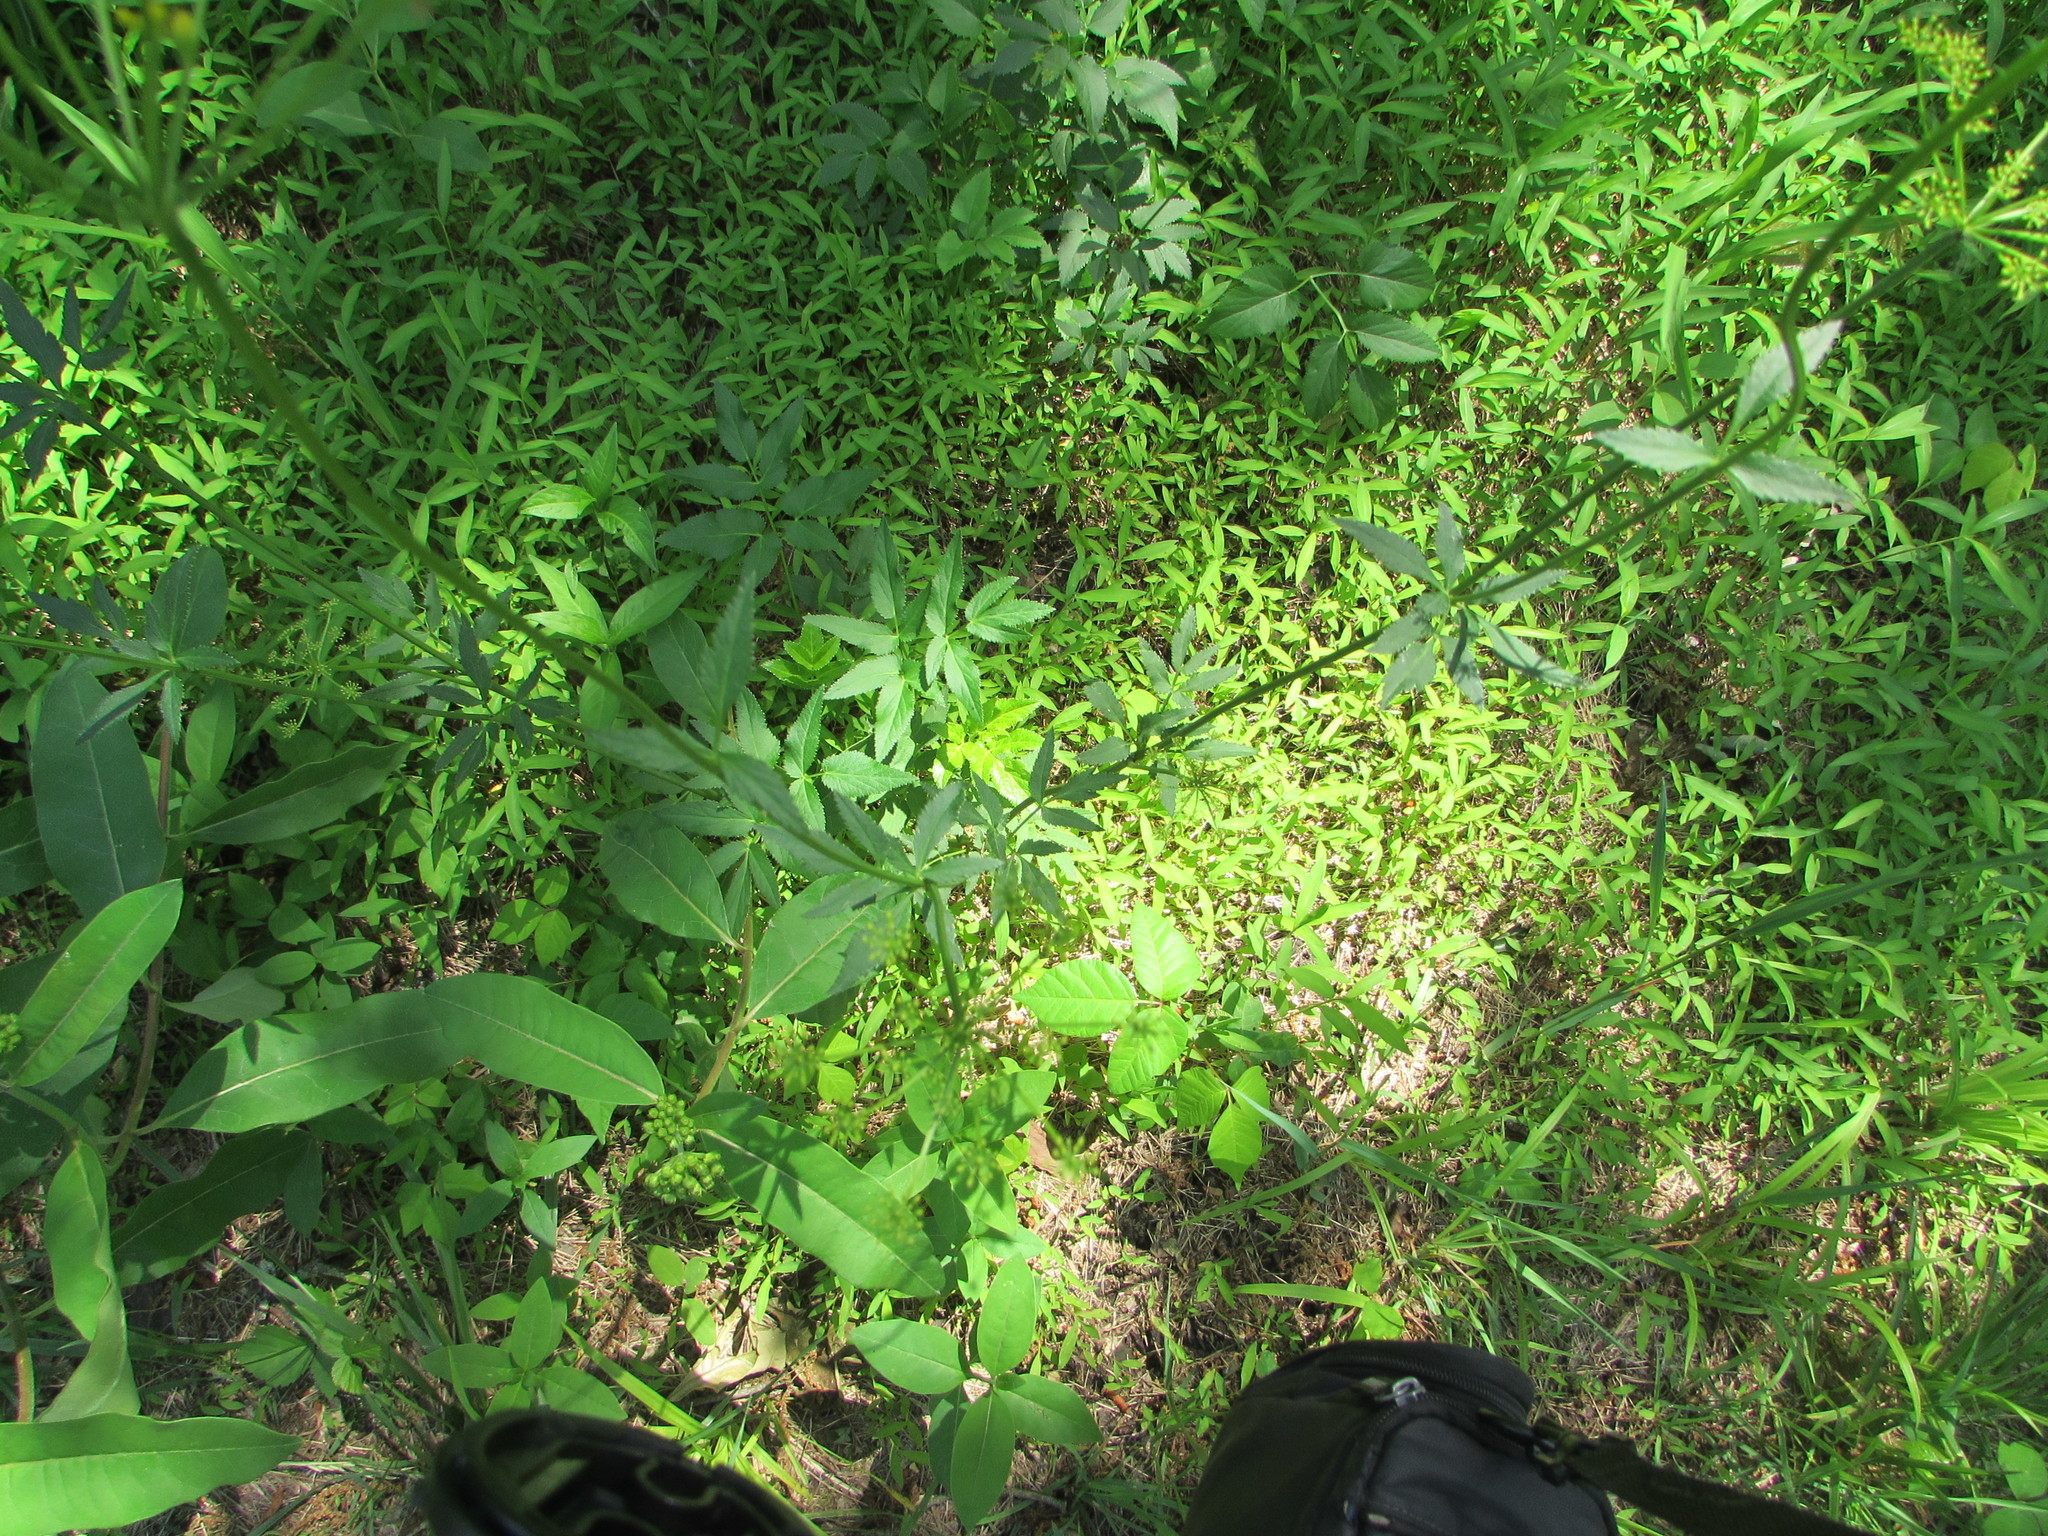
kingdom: Plantae
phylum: Tracheophyta
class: Magnoliopsida
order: Apiales
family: Apiaceae
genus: Zizia
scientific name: Zizia aurea
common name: Golden alexanders
